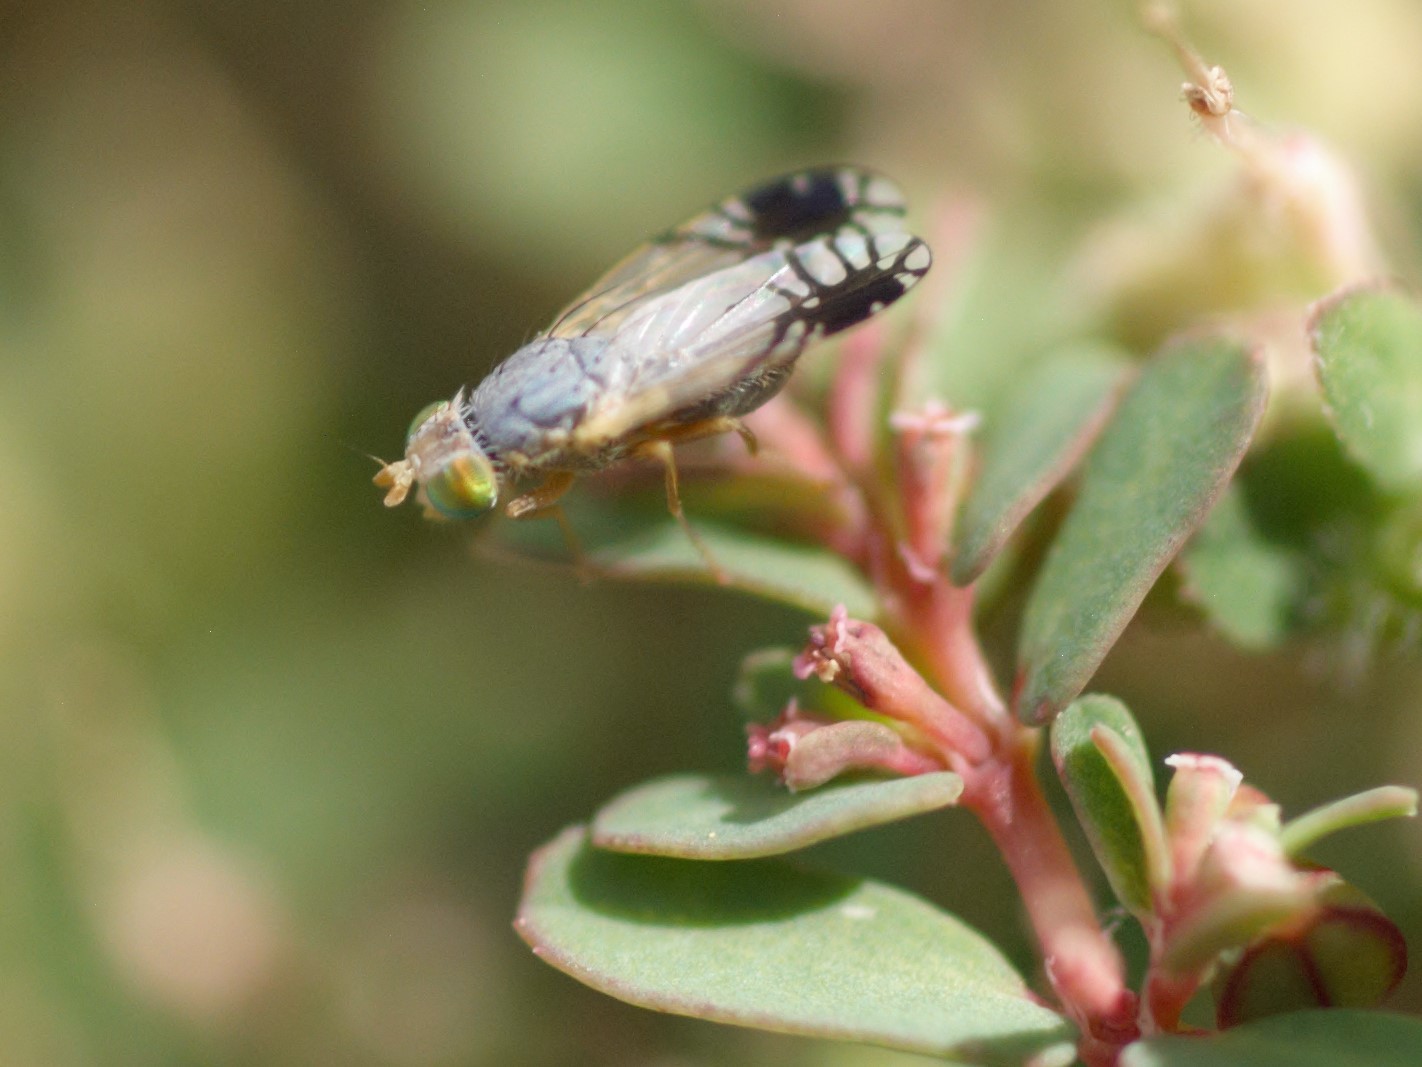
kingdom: Animalia
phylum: Arthropoda
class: Insecta
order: Diptera
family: Tephritidae
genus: Trupanea
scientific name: Trupanea vicina
